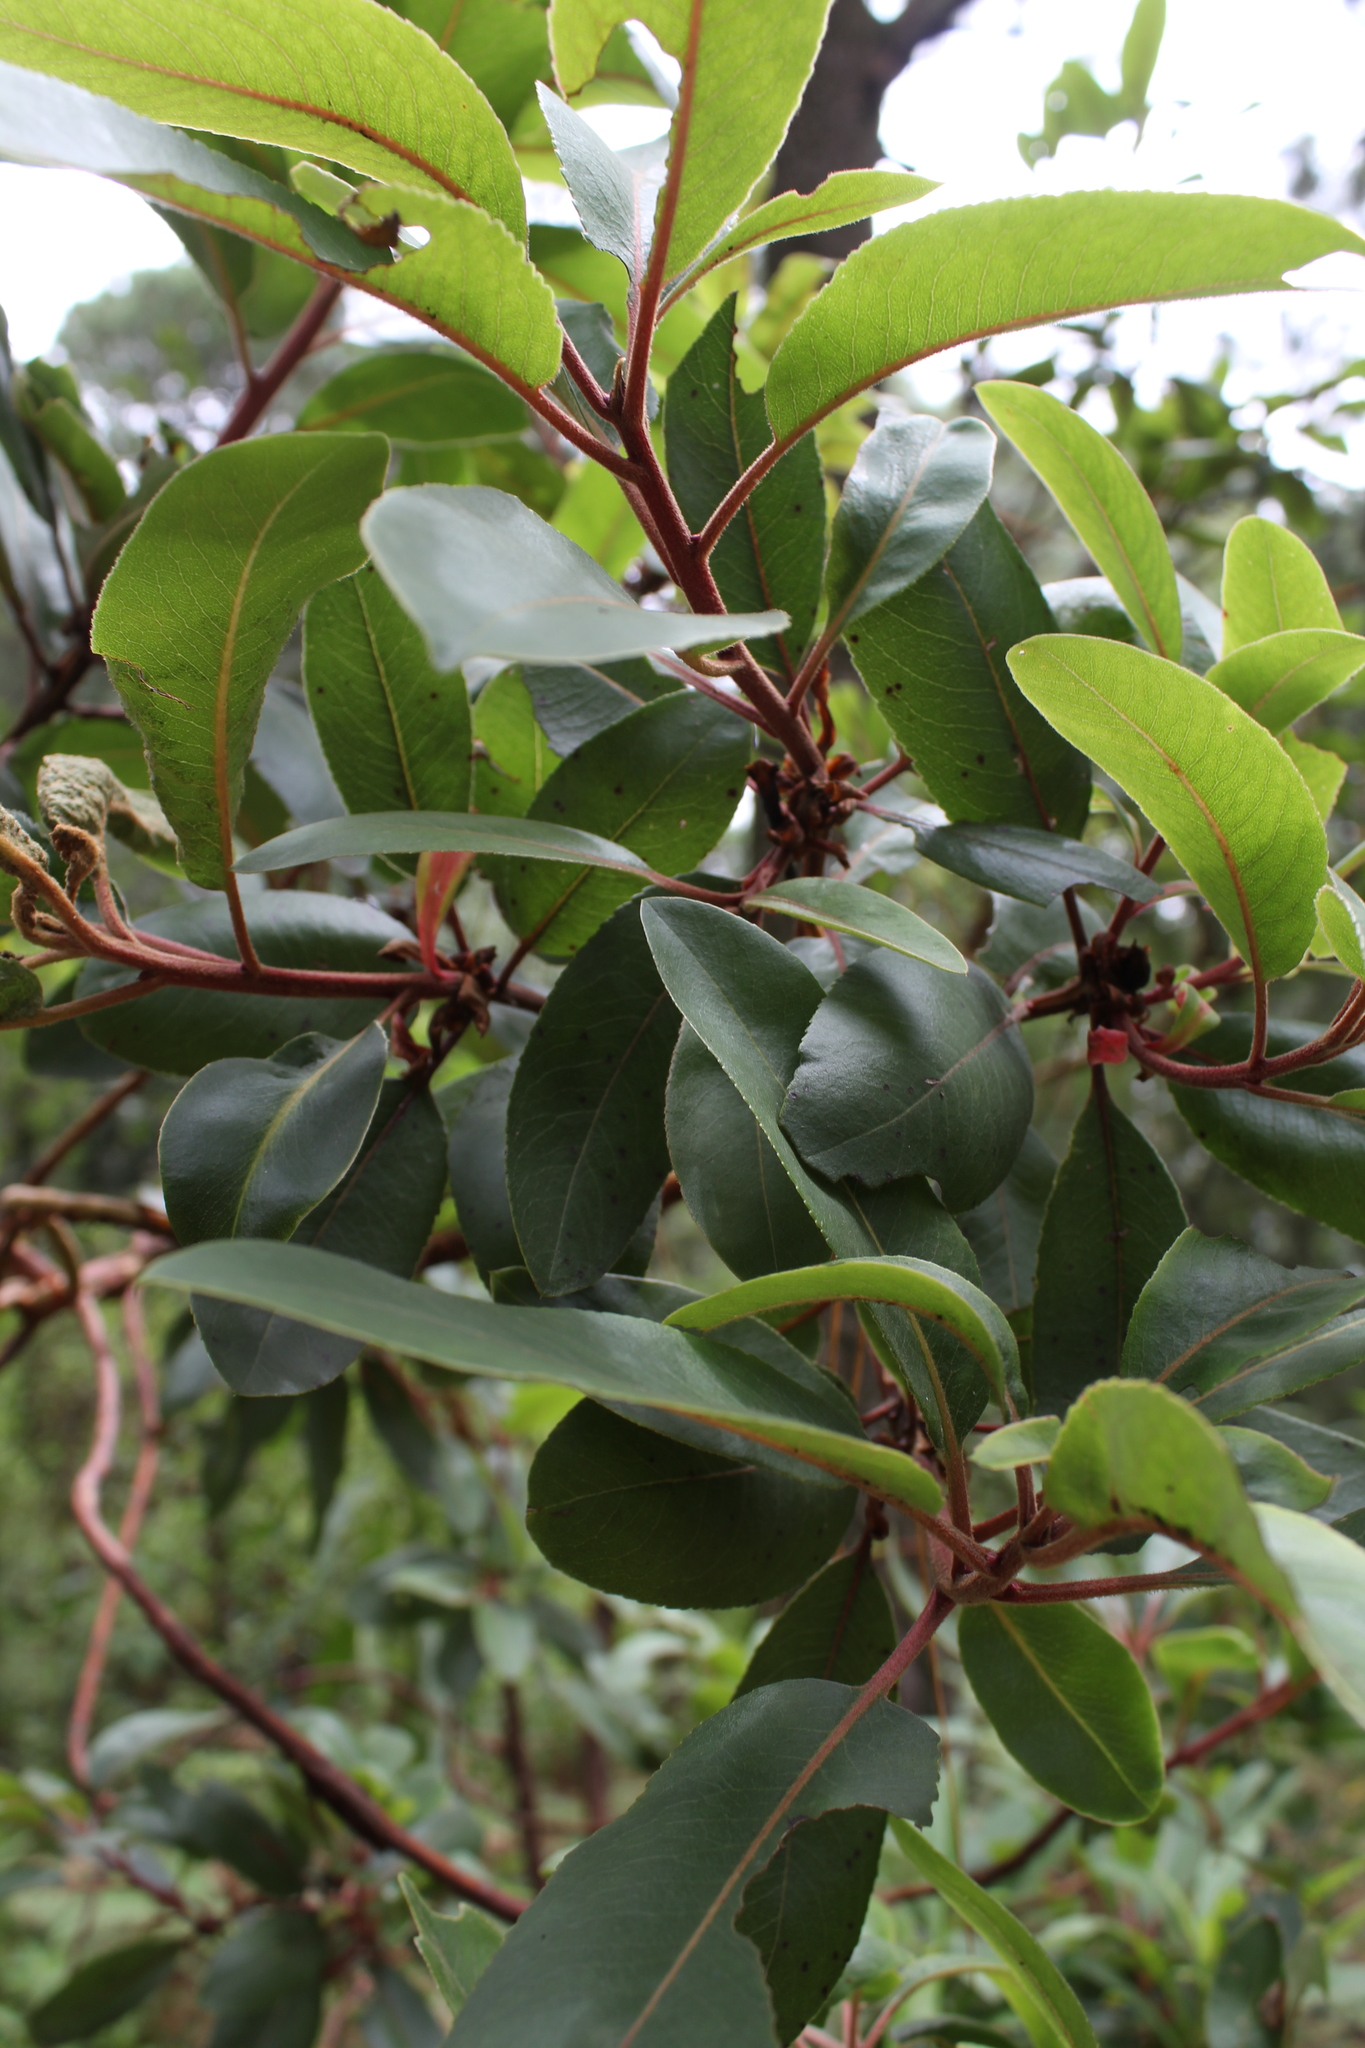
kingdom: Plantae
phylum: Tracheophyta
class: Magnoliopsida
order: Ericales
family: Ericaceae
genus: Arbutus
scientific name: Arbutus xalapensis
